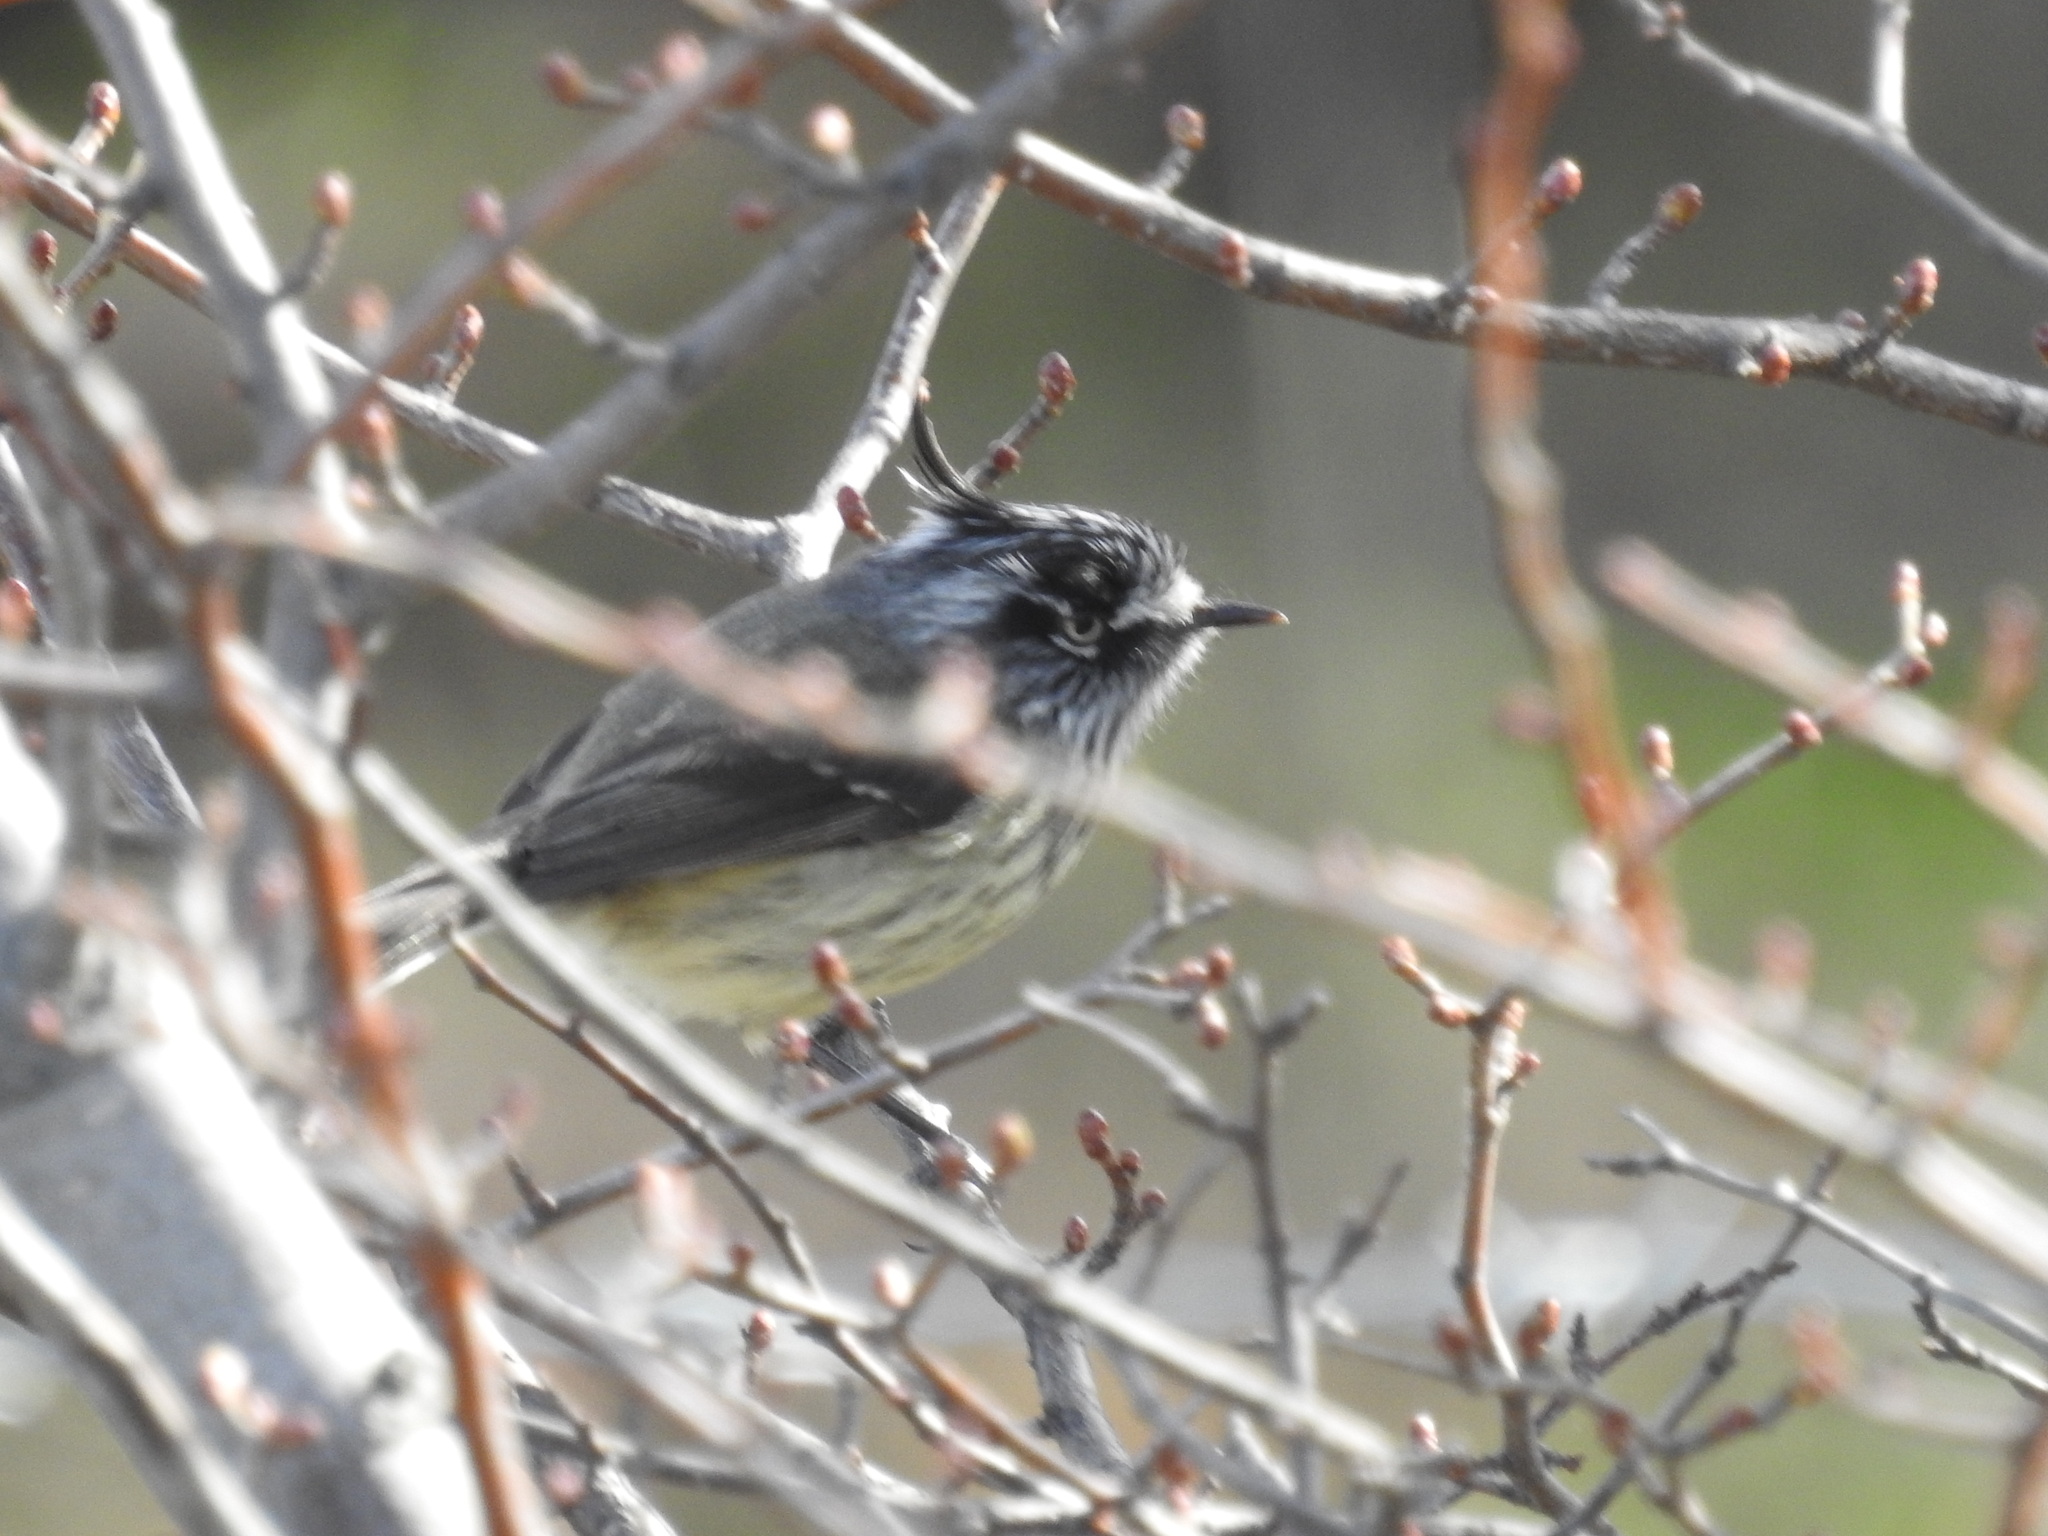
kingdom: Animalia
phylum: Chordata
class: Aves
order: Passeriformes
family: Tyrannidae
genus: Anairetes
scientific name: Anairetes parulus
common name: Tufted tit-tyrant
